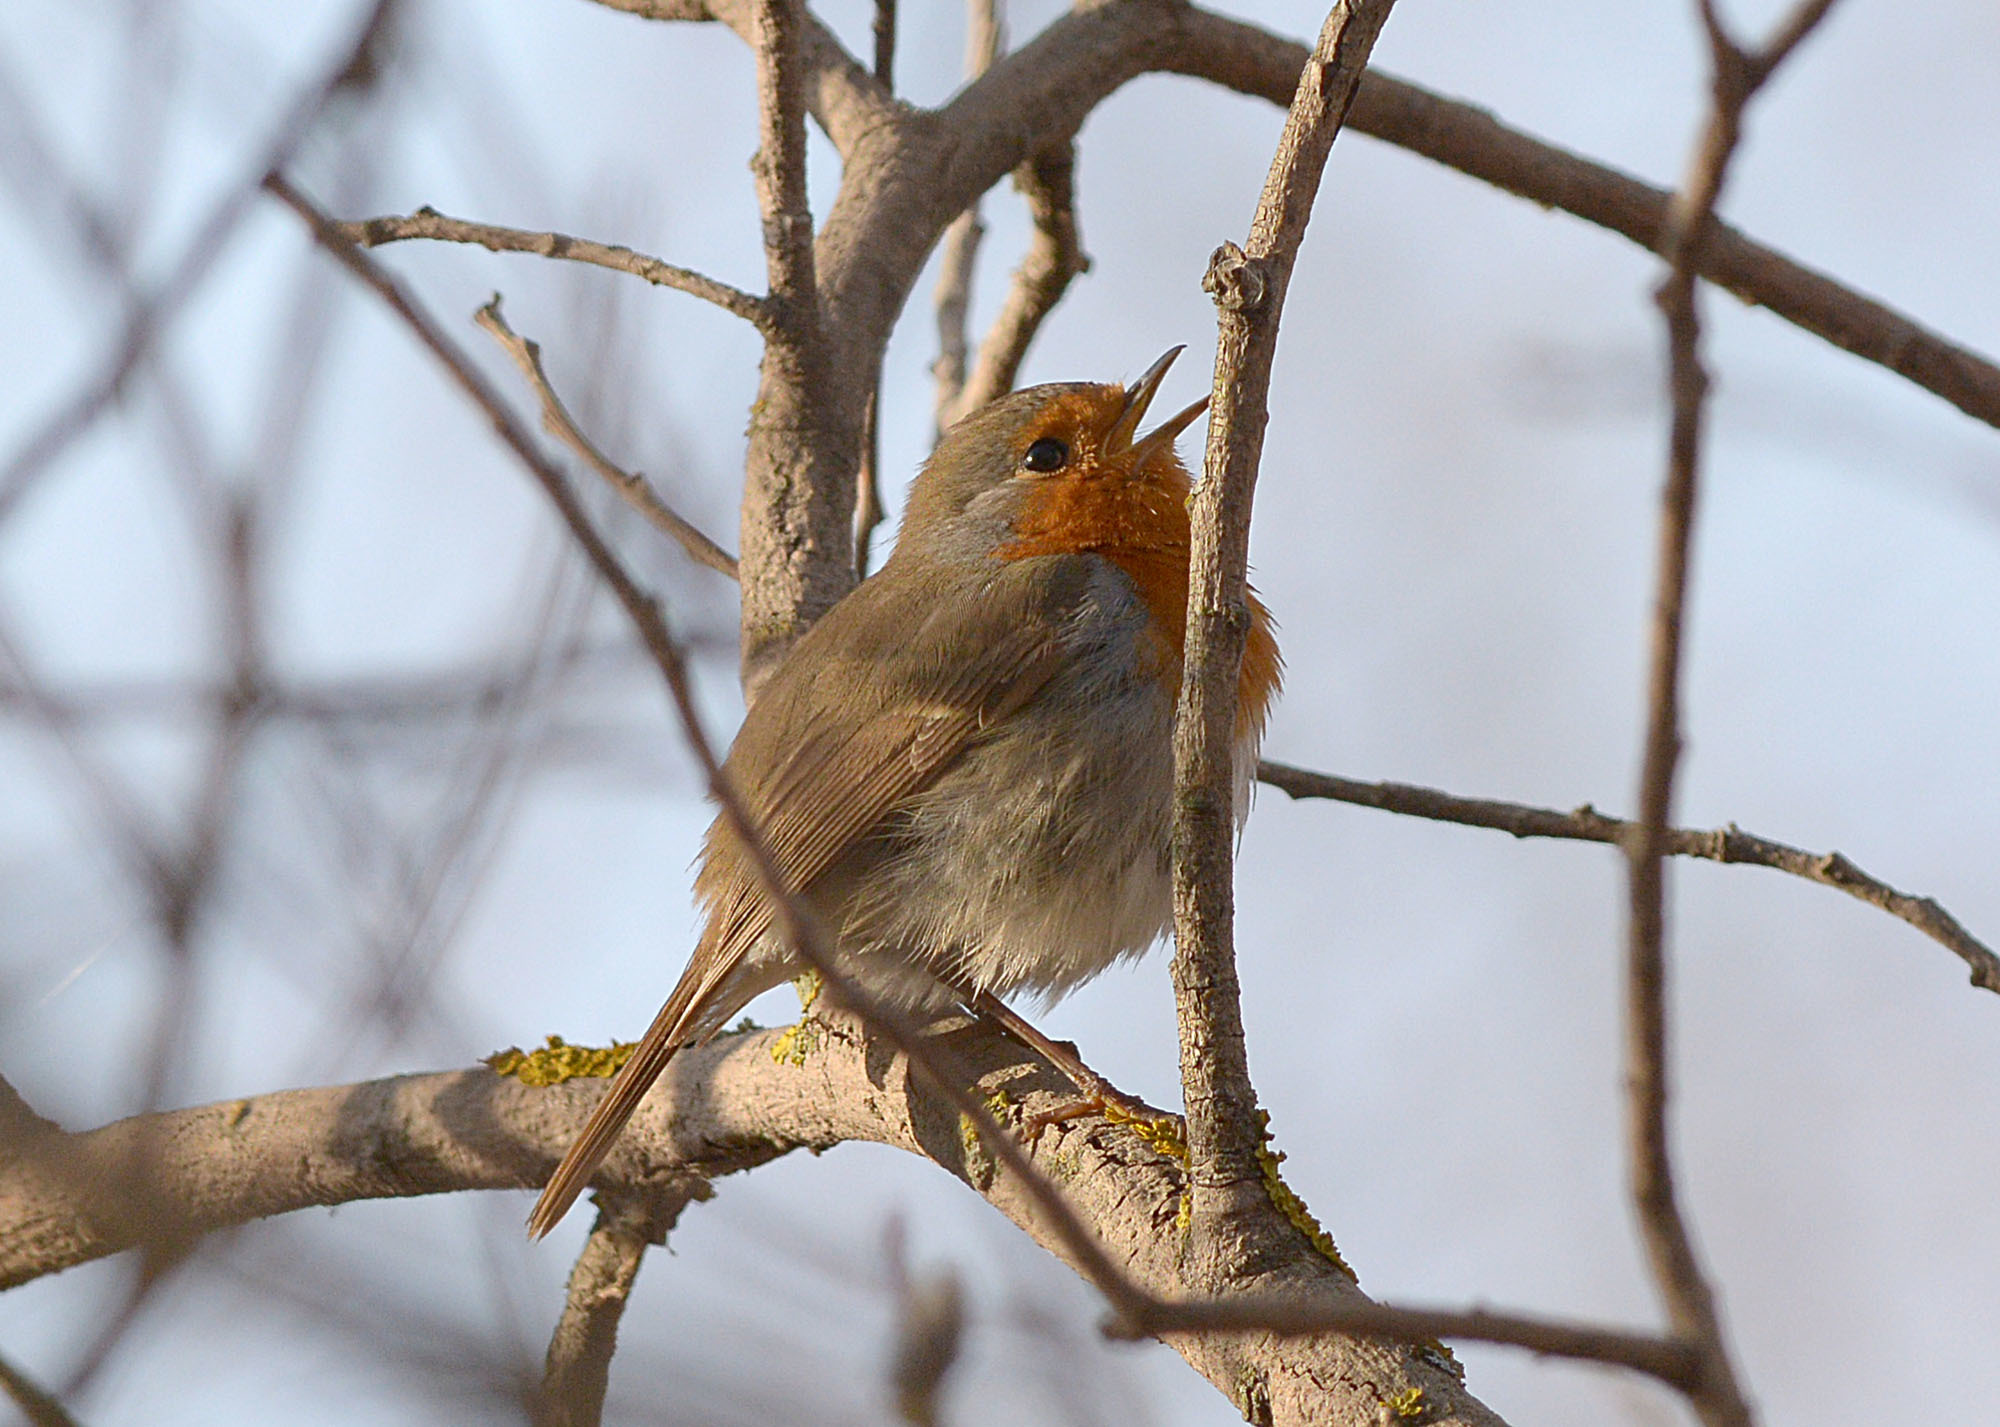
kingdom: Animalia
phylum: Chordata
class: Aves
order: Passeriformes
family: Muscicapidae
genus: Erithacus
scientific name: Erithacus rubecula
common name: European robin
